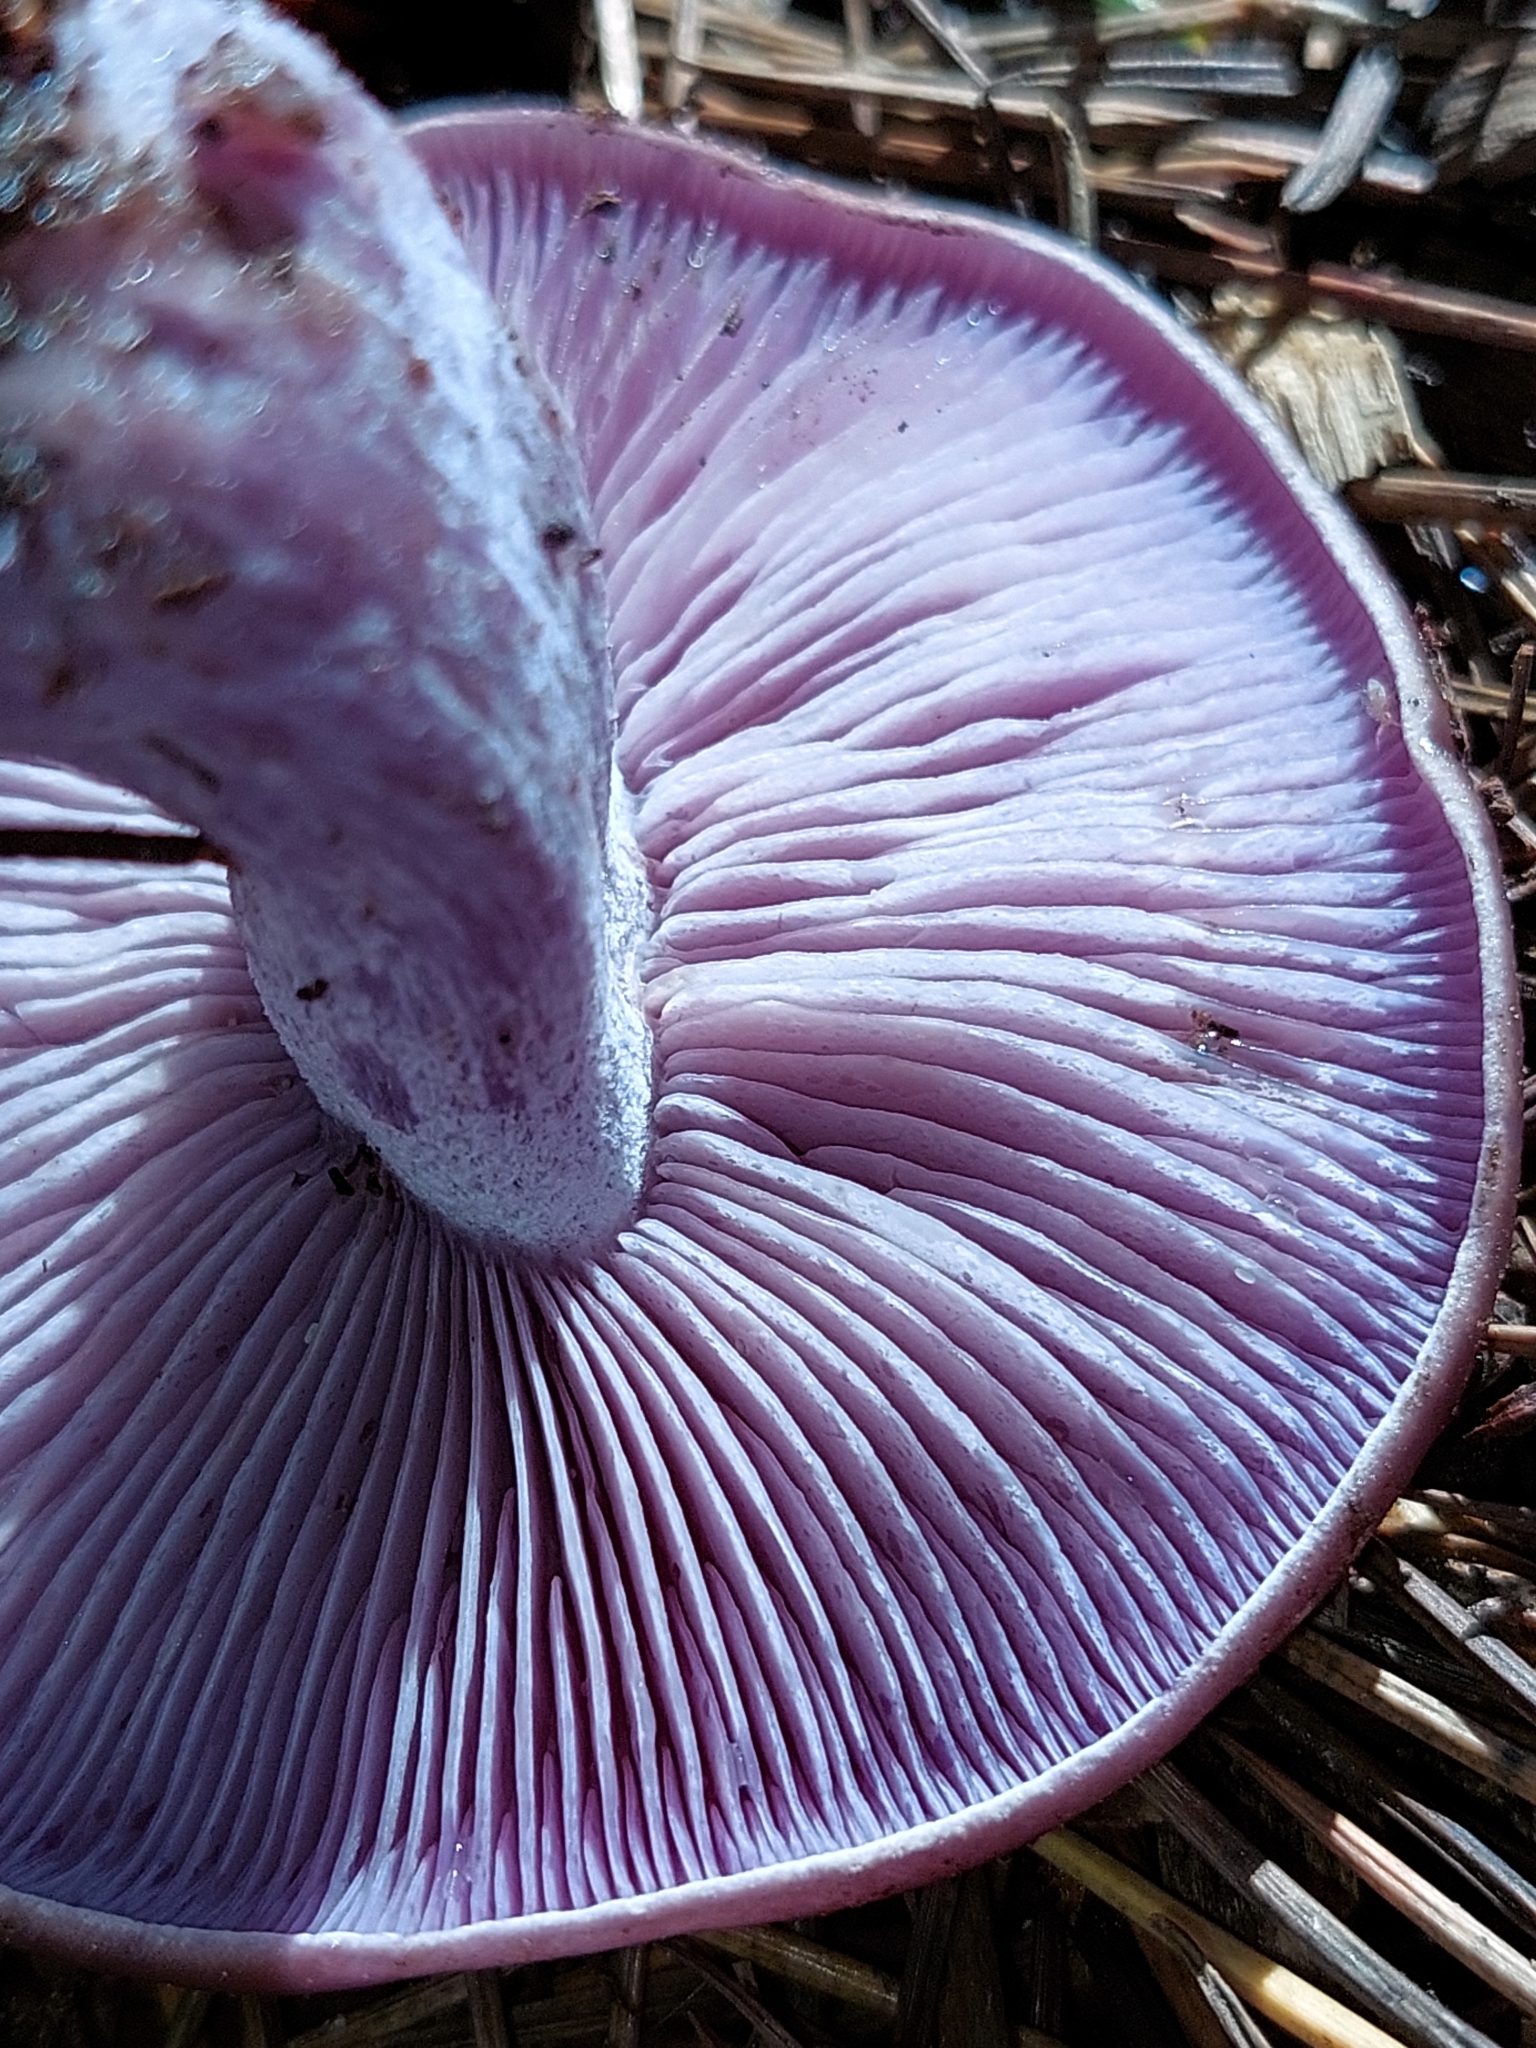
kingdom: Fungi
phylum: Basidiomycota
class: Agaricomycetes
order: Agaricales
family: Tricholomataceae
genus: Collybia
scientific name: Collybia
